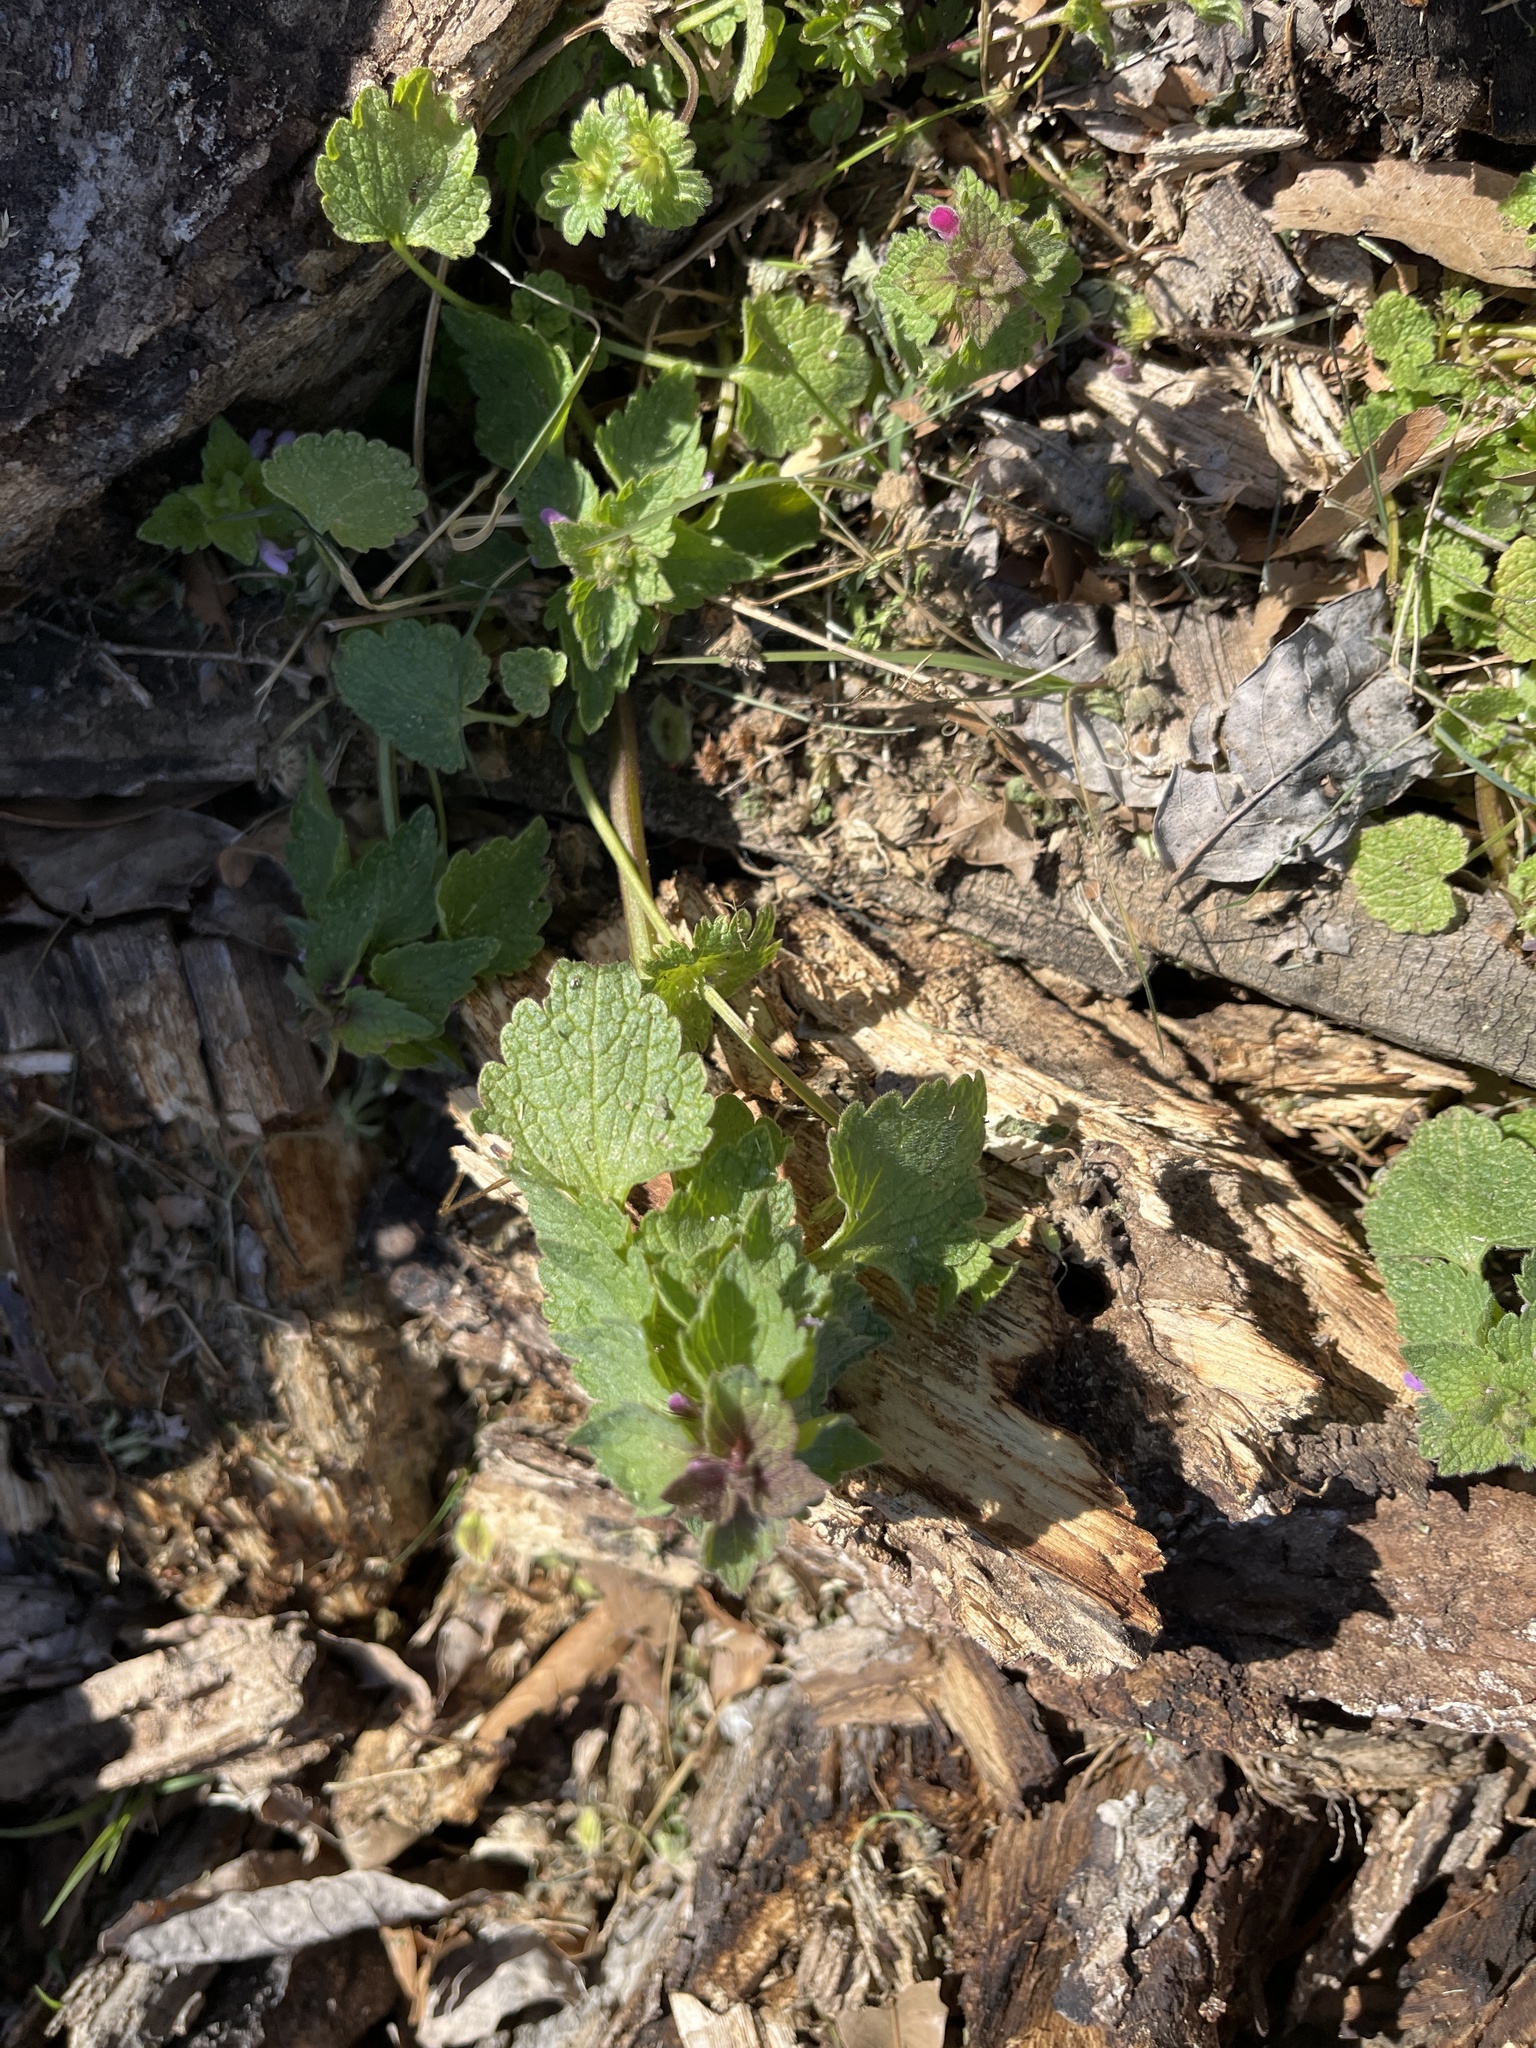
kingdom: Plantae
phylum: Tracheophyta
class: Magnoliopsida
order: Lamiales
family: Lamiaceae
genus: Lamium
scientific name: Lamium purpureum
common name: Red dead-nettle
